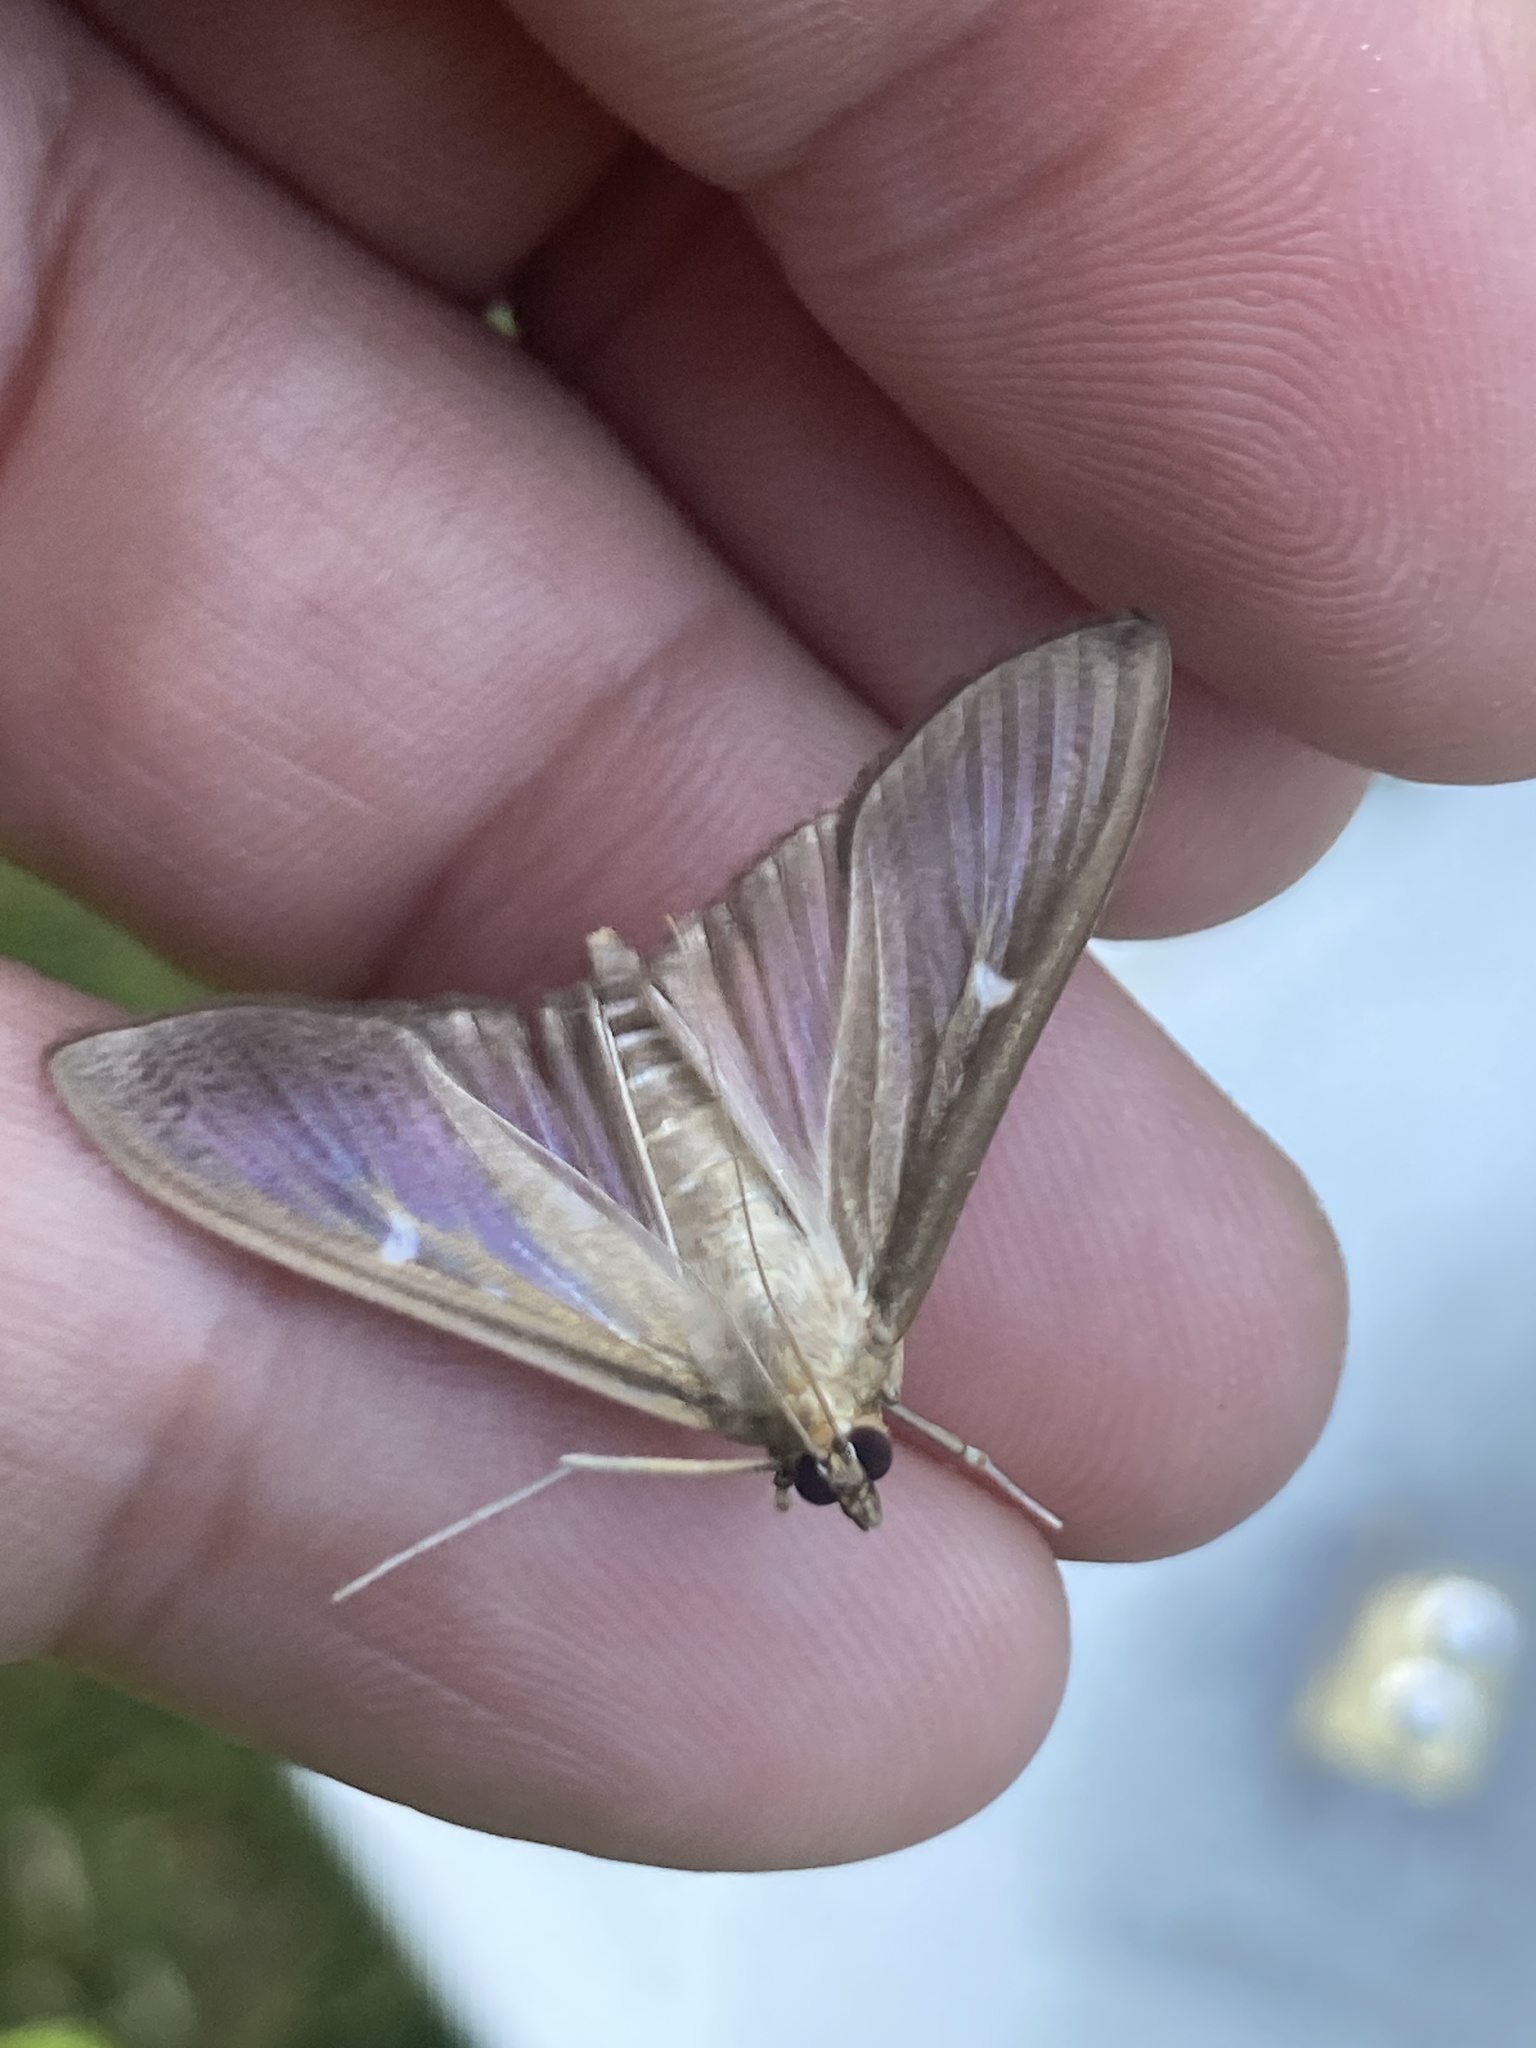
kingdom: Animalia
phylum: Arthropoda
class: Insecta
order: Lepidoptera
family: Crambidae
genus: Cydalima
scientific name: Cydalima perspectalis
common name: Box tree moth
